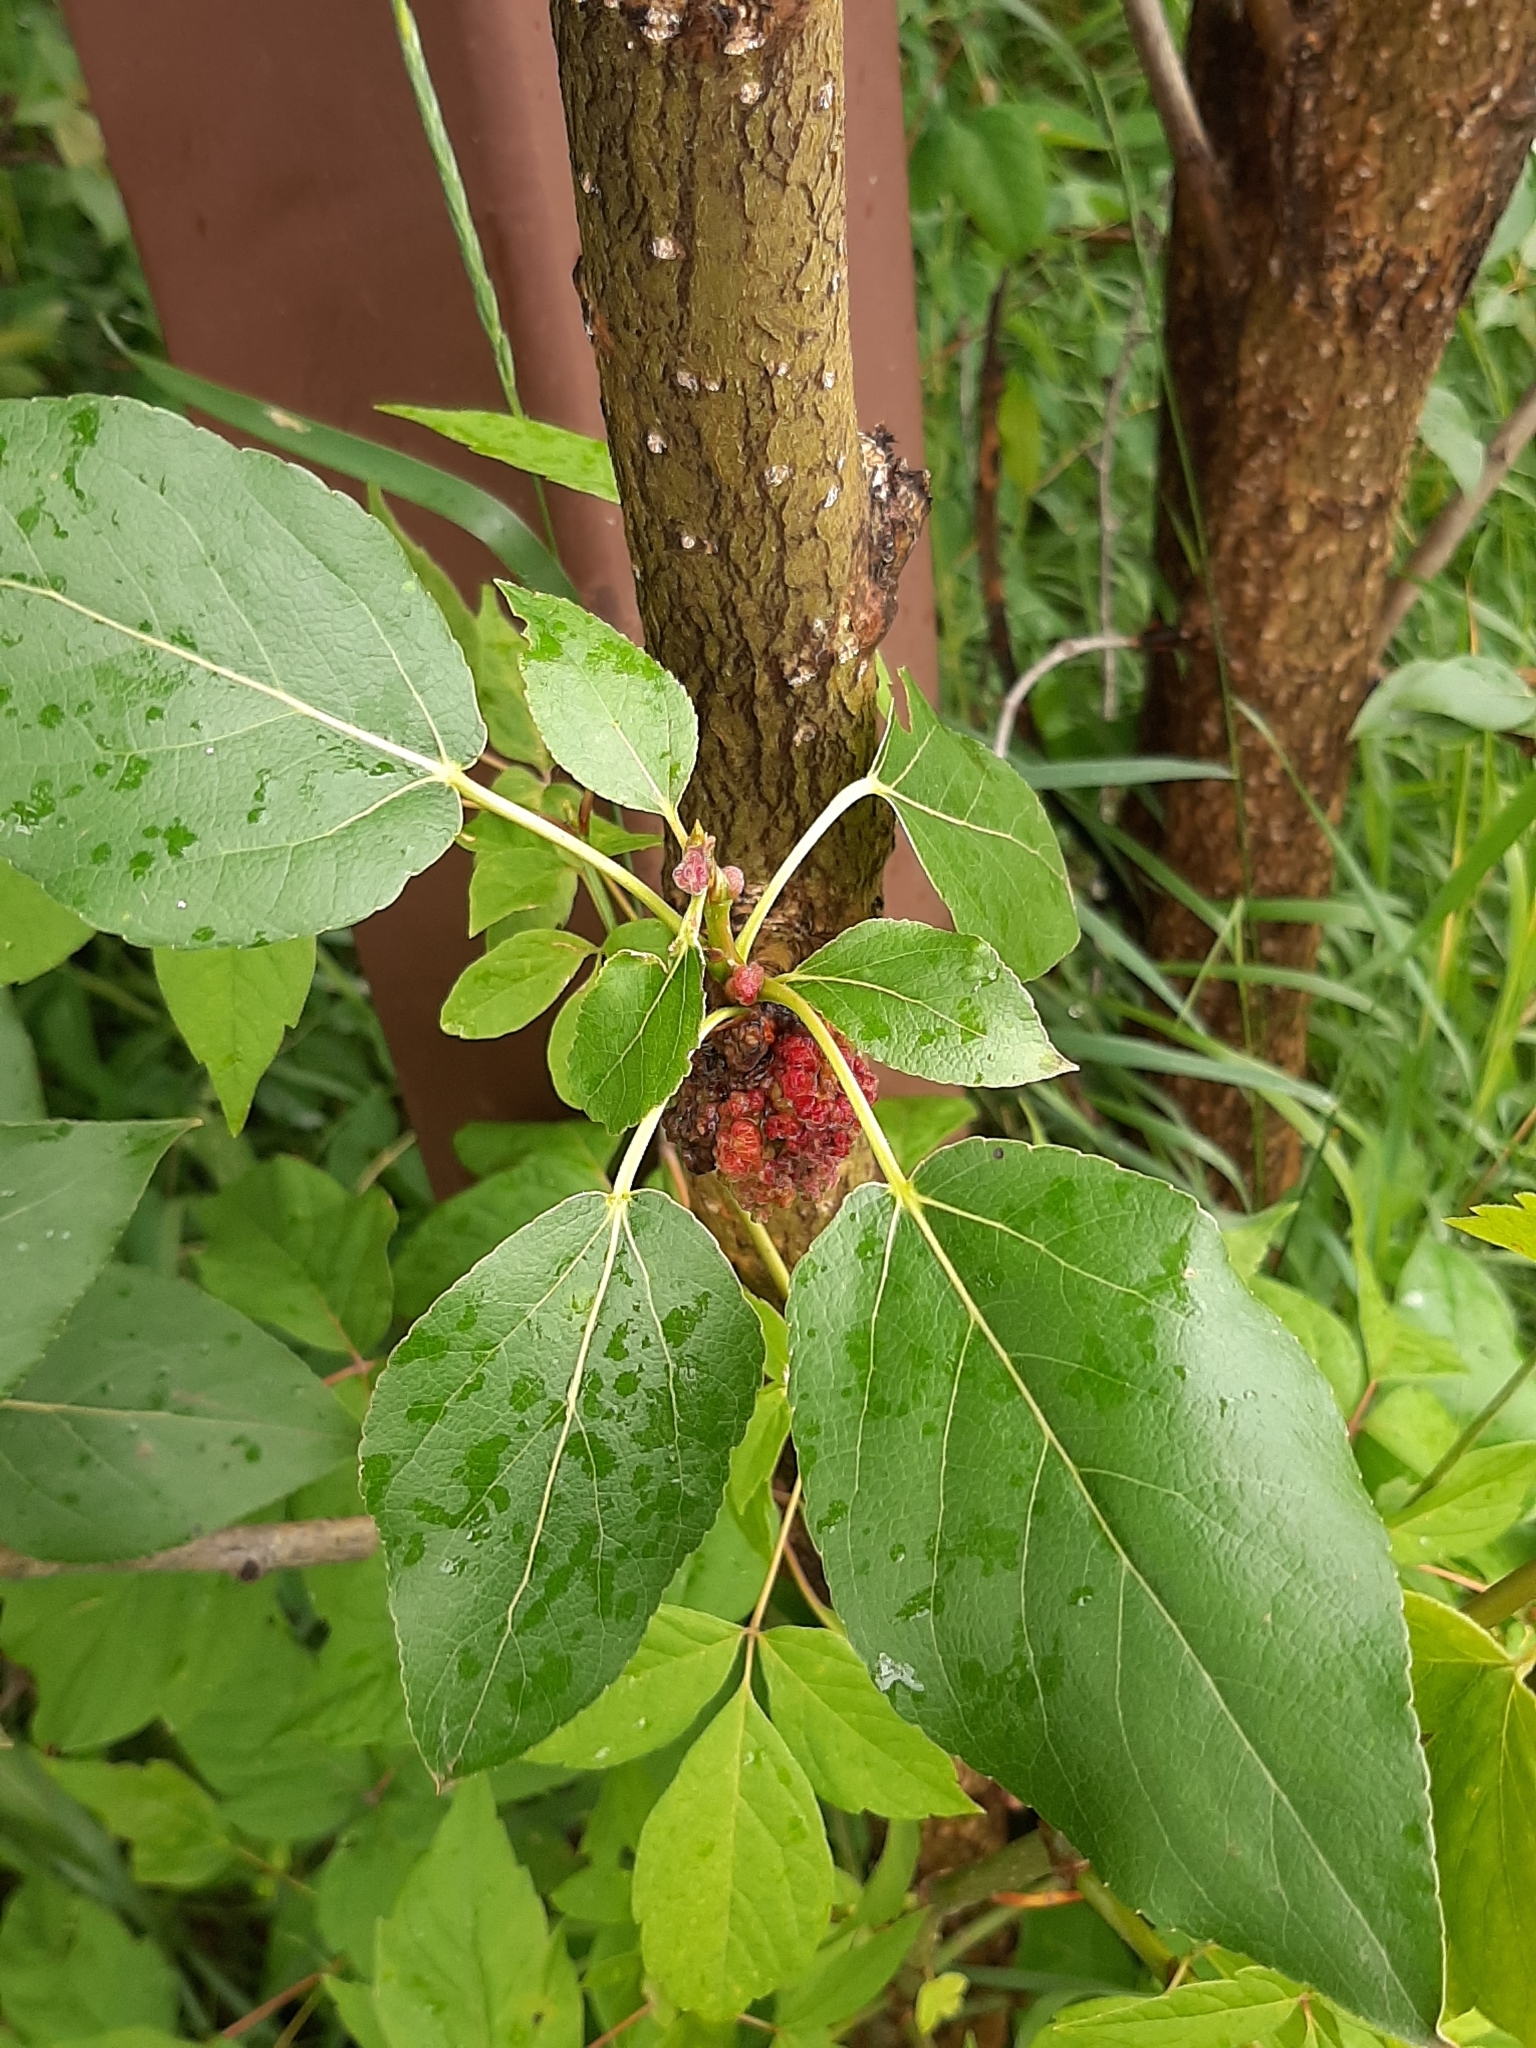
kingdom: Animalia
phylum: Arthropoda
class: Arachnida
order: Trombidiformes
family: Eriophyidae
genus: Aceria
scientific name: Aceria
